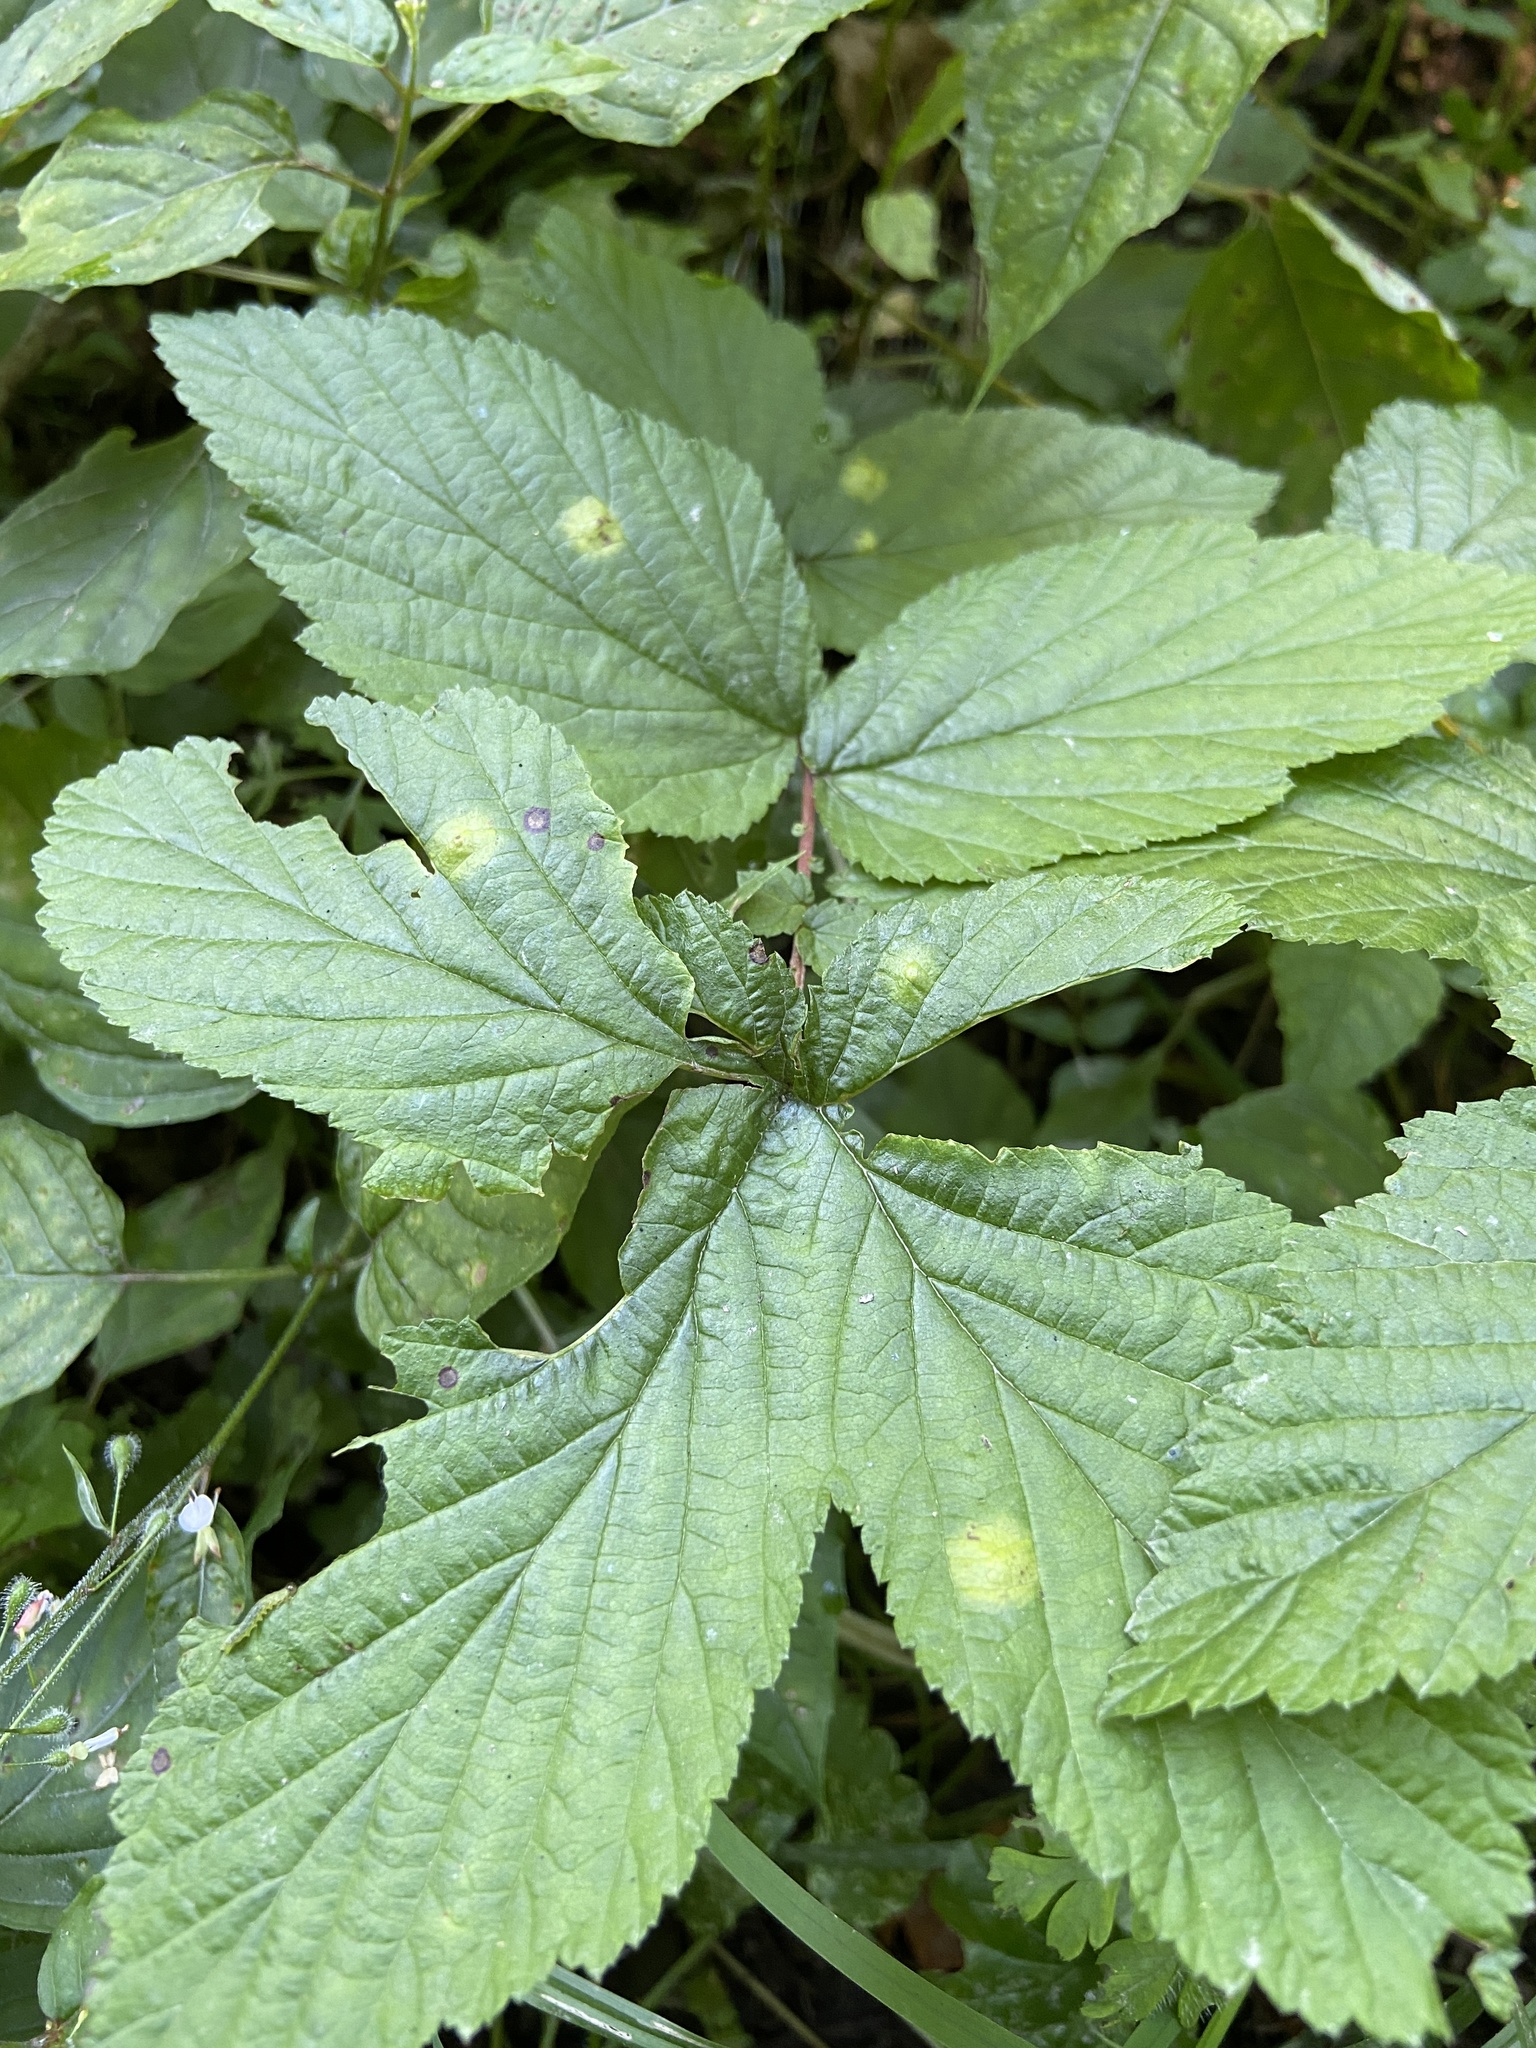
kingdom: Animalia
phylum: Arthropoda
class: Insecta
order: Diptera
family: Cecidomyiidae
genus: Dasineura
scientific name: Dasineura pustulans
